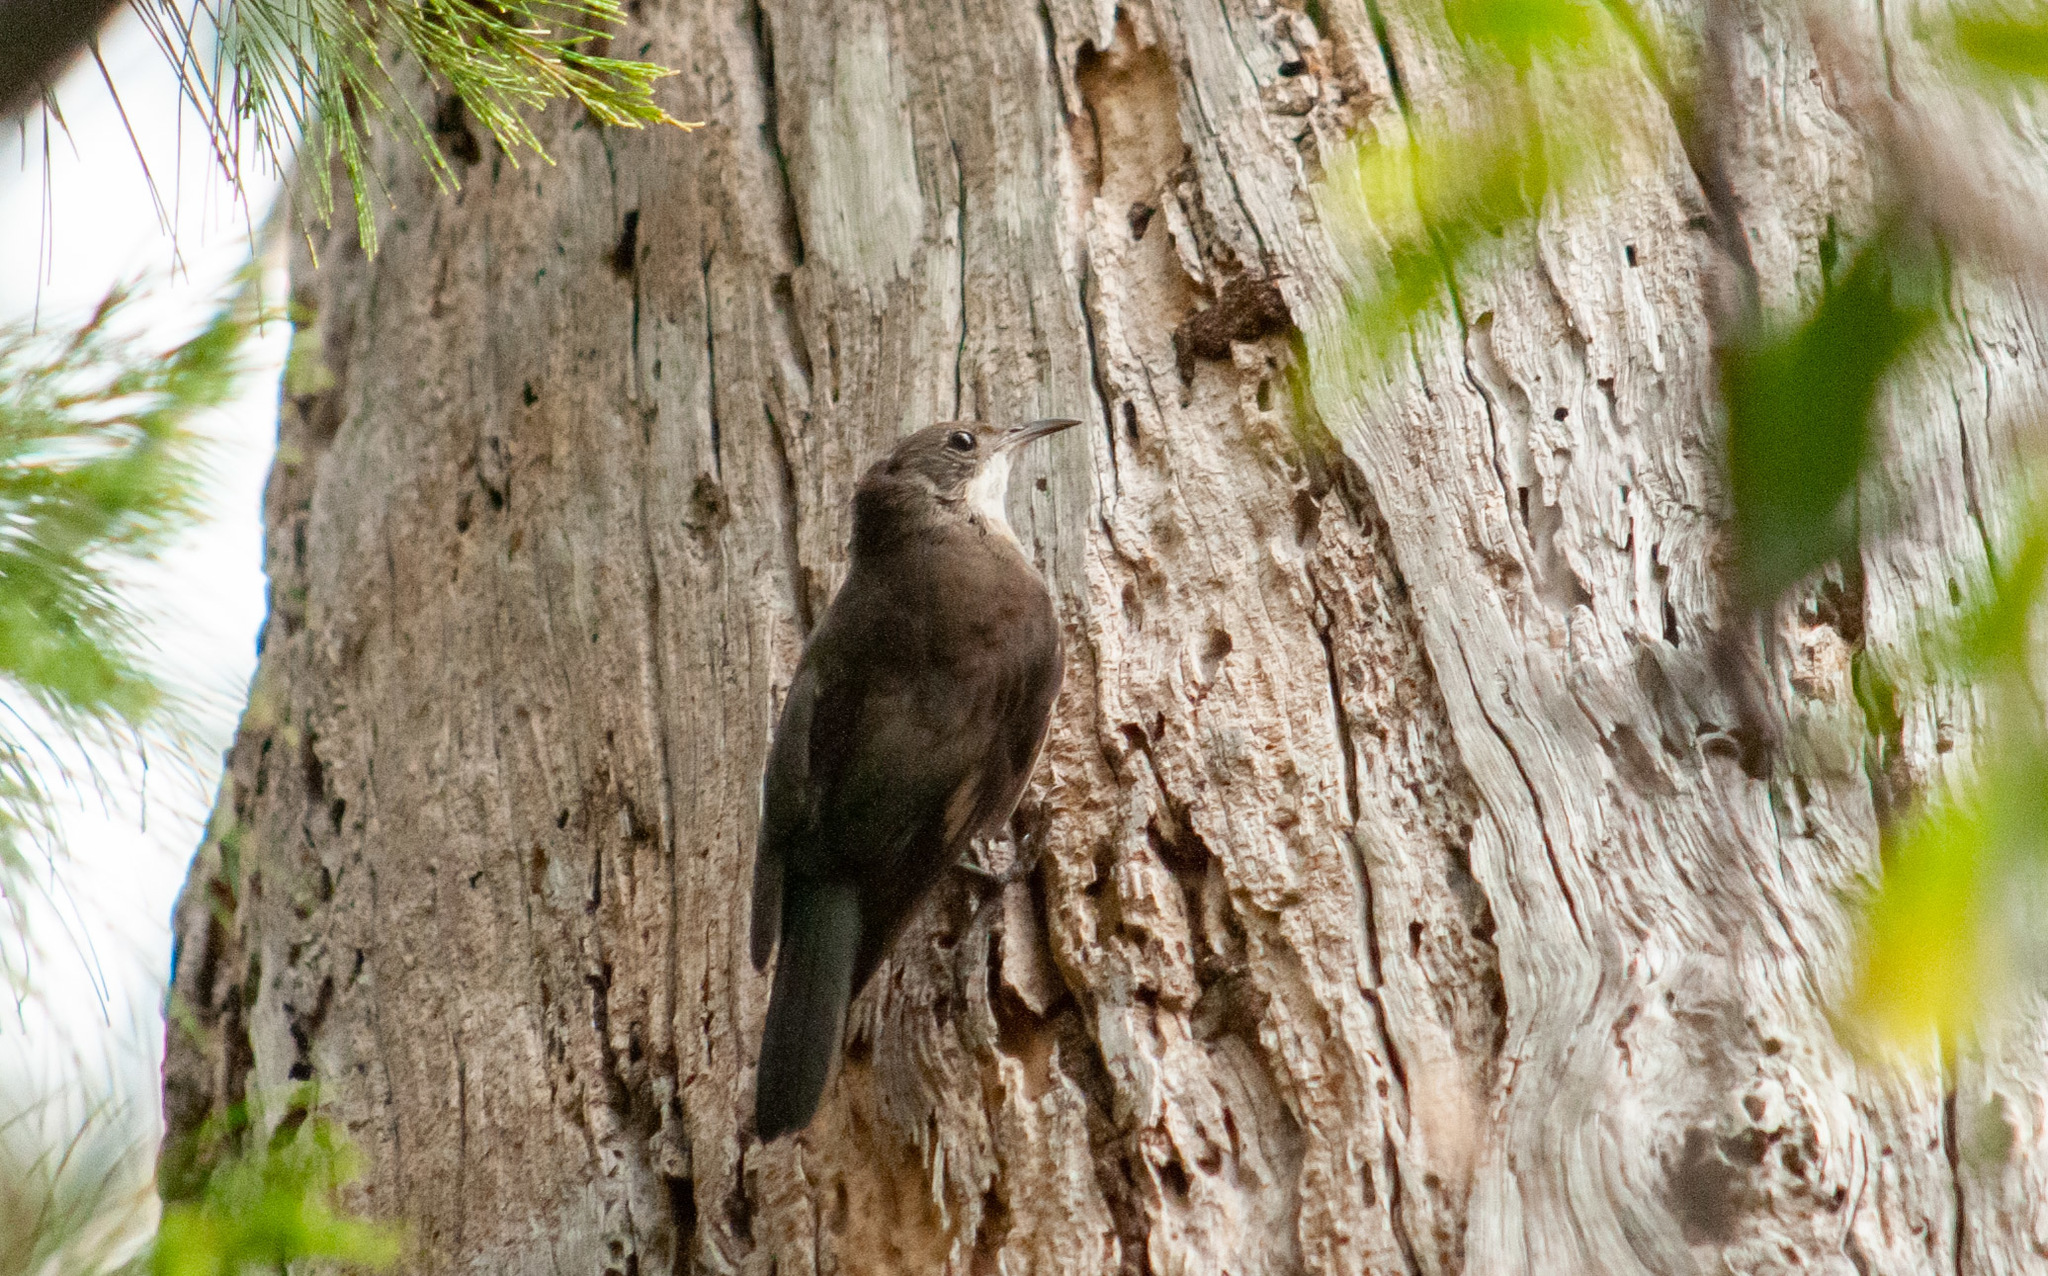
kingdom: Animalia
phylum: Chordata
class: Aves
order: Passeriformes
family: Climacteridae
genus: Cormobates
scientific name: Cormobates leucophaea
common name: White-throated treecreeper
